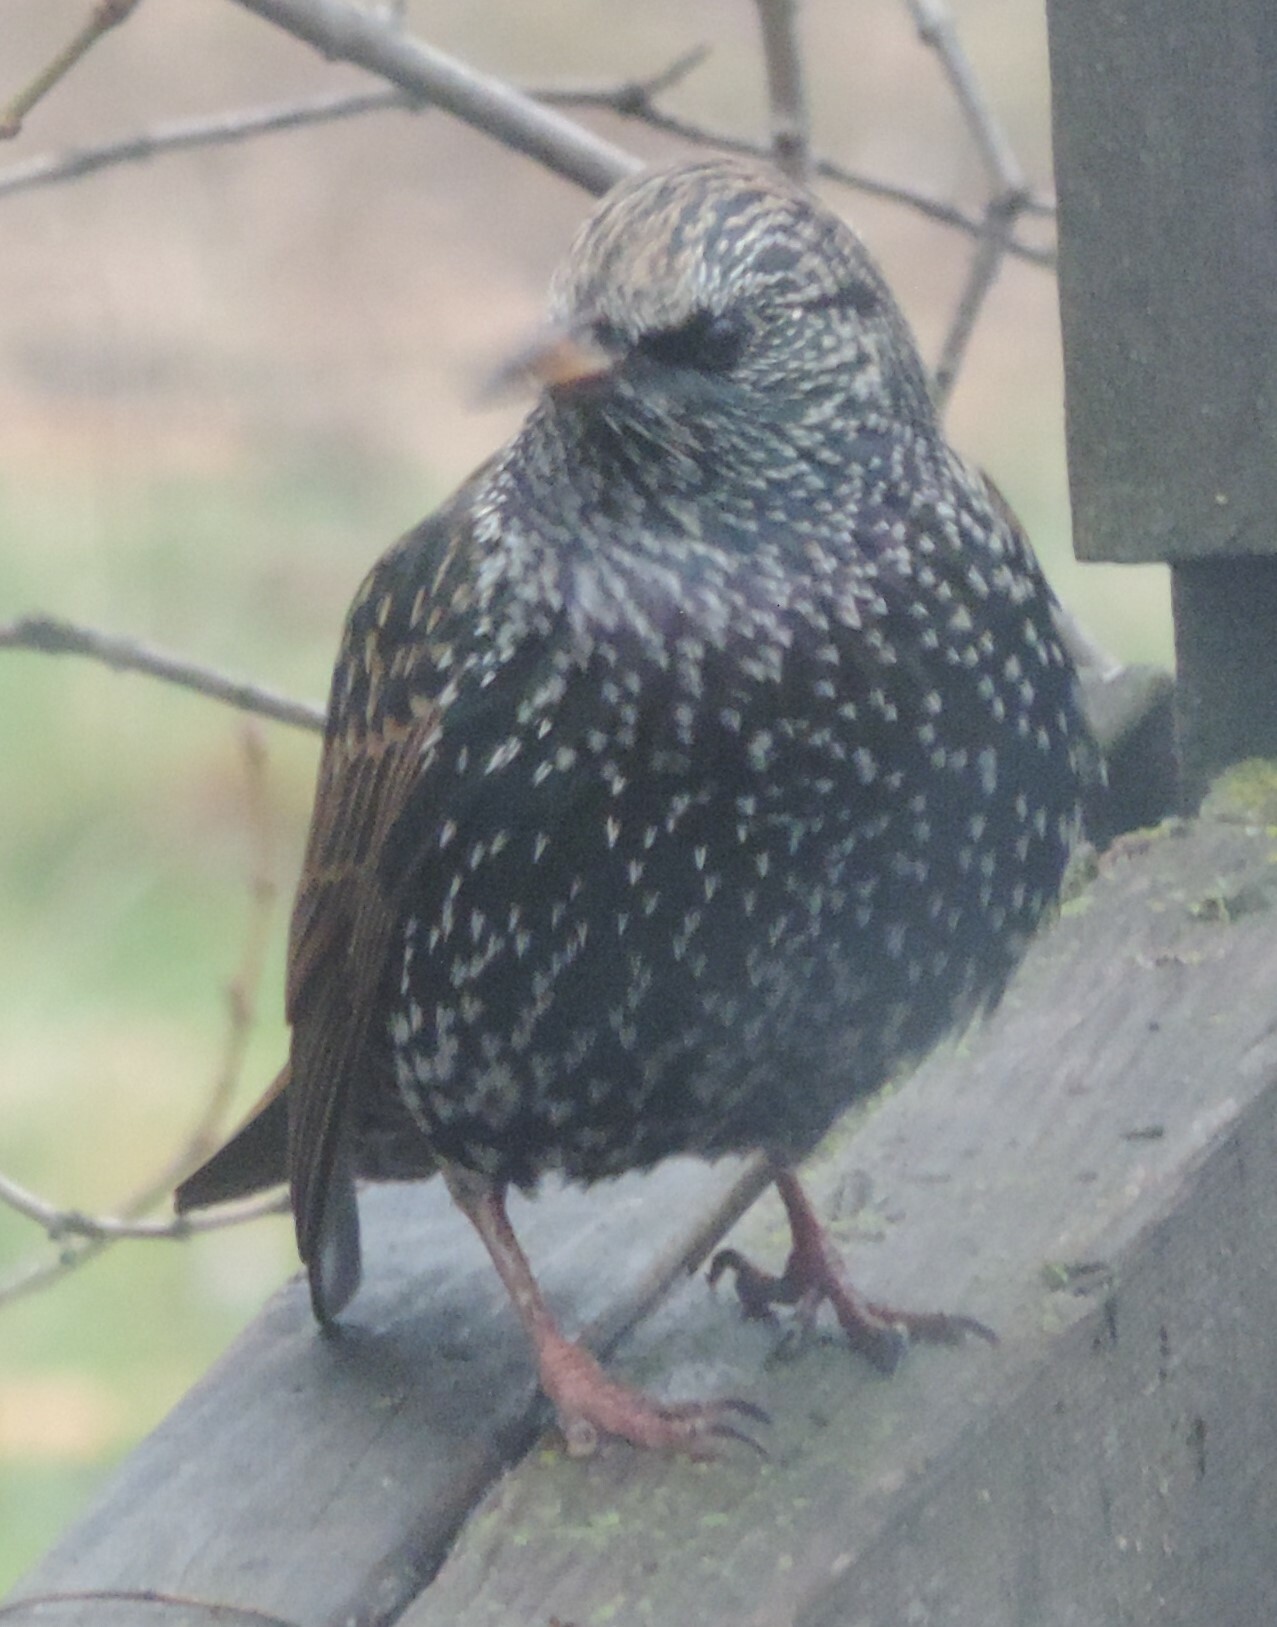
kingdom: Animalia
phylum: Chordata
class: Aves
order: Passeriformes
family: Sturnidae
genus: Sturnus
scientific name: Sturnus vulgaris
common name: Common starling
